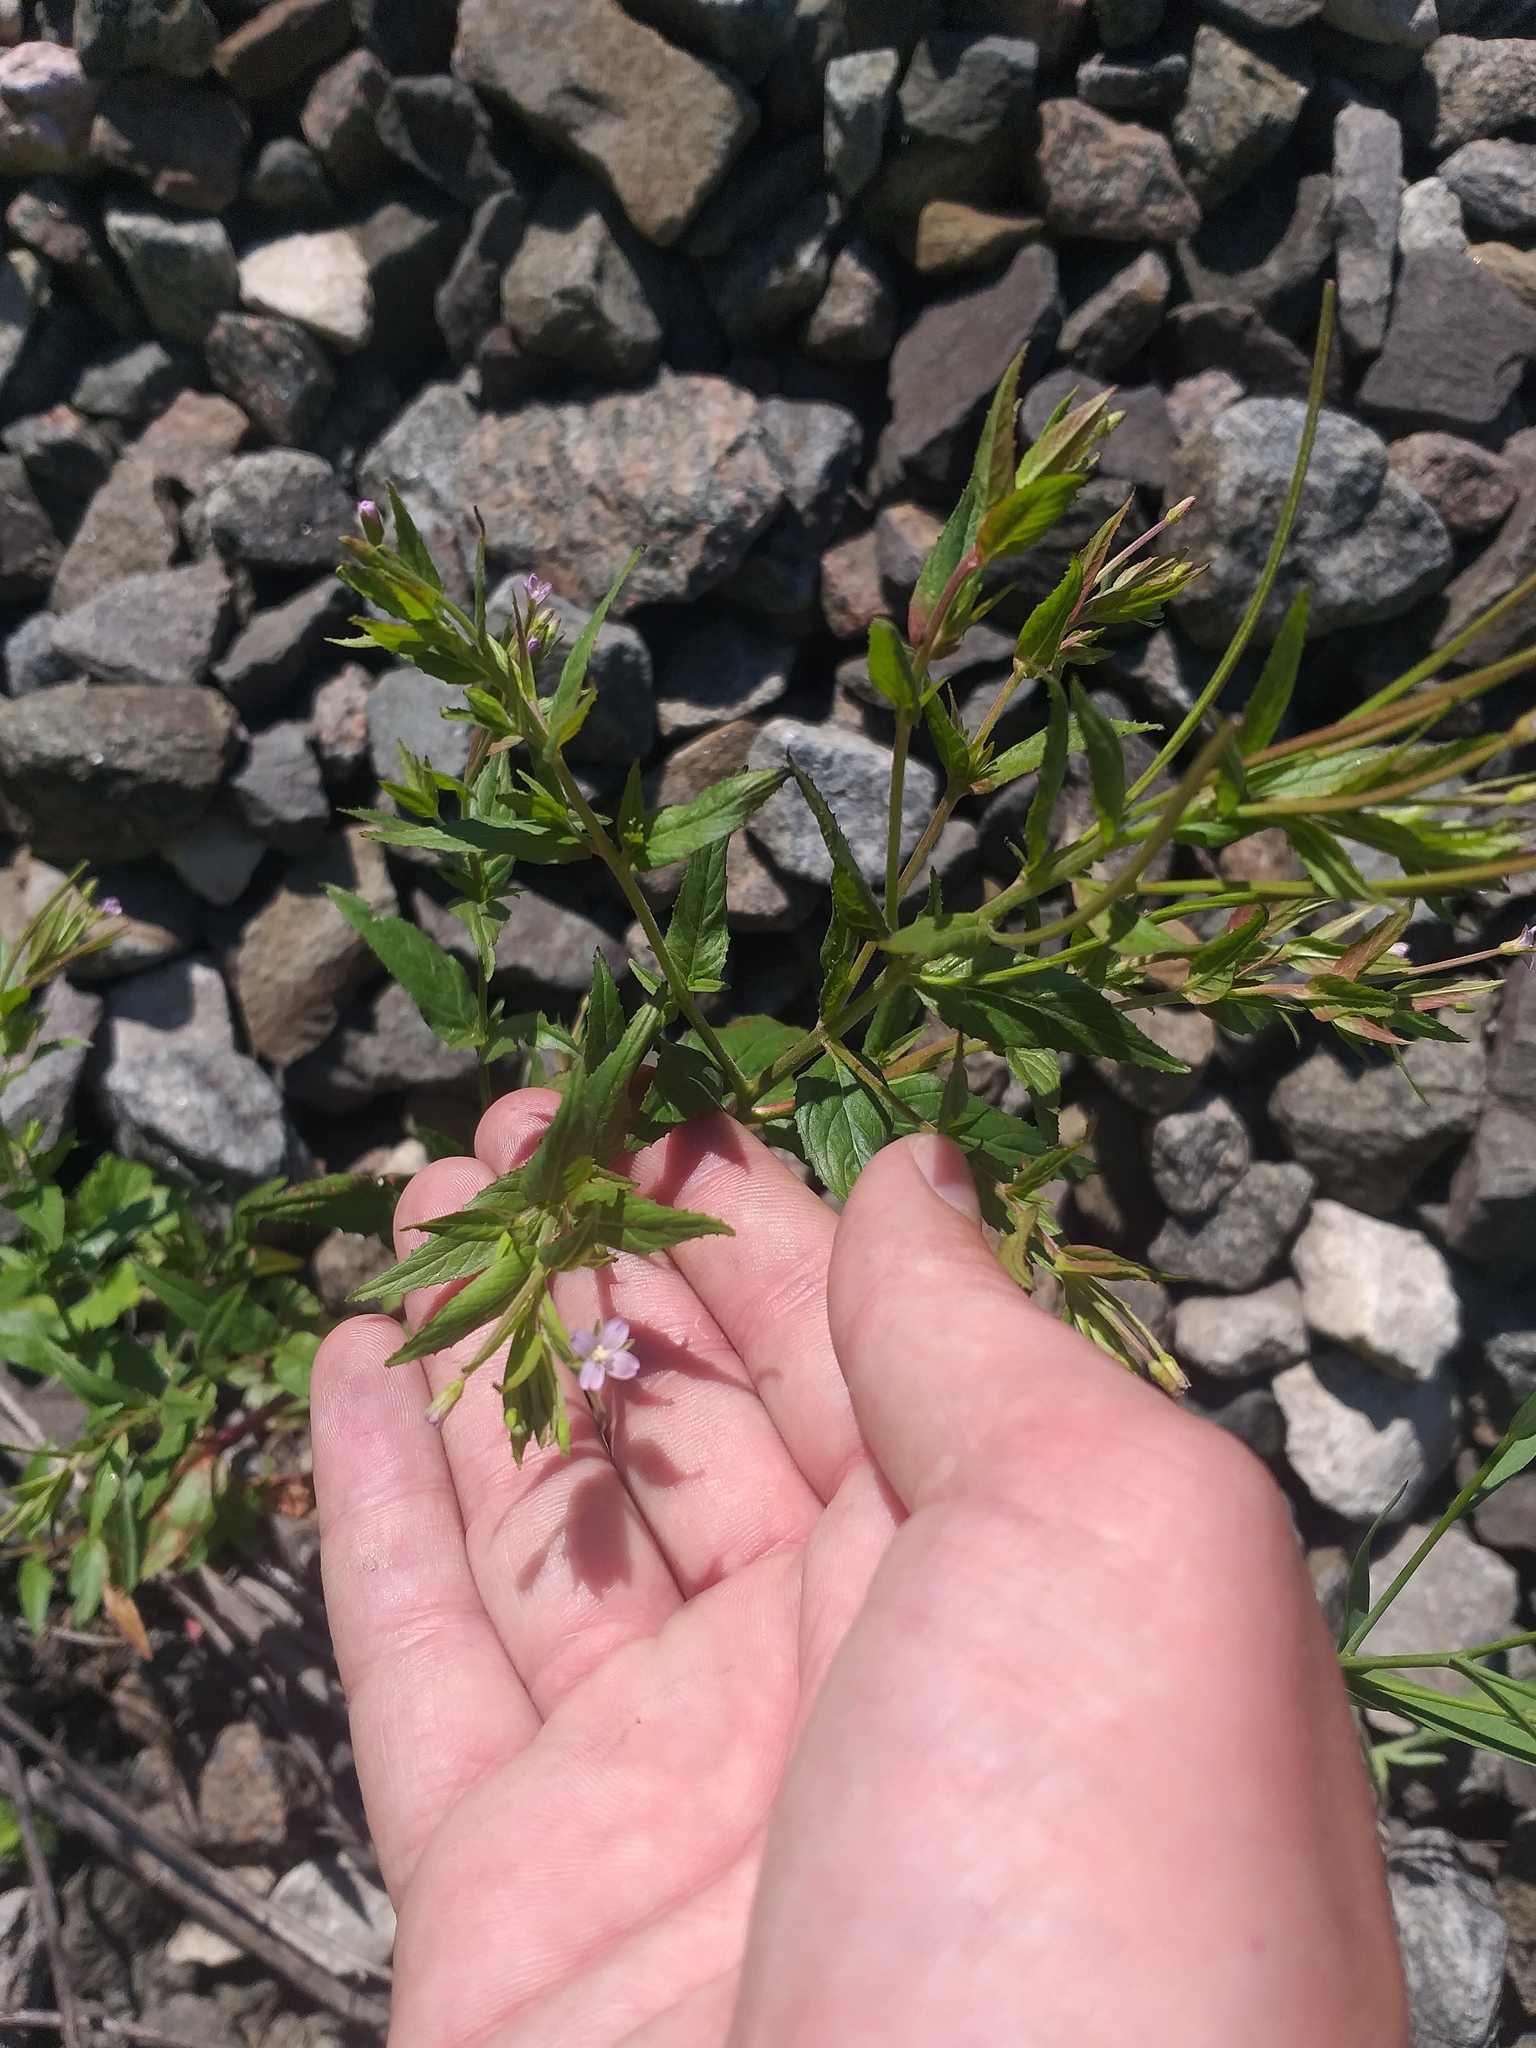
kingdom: Plantae
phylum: Tracheophyta
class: Magnoliopsida
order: Myrtales
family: Onagraceae
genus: Epilobium
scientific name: Epilobium ciliatum
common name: American willowherb
